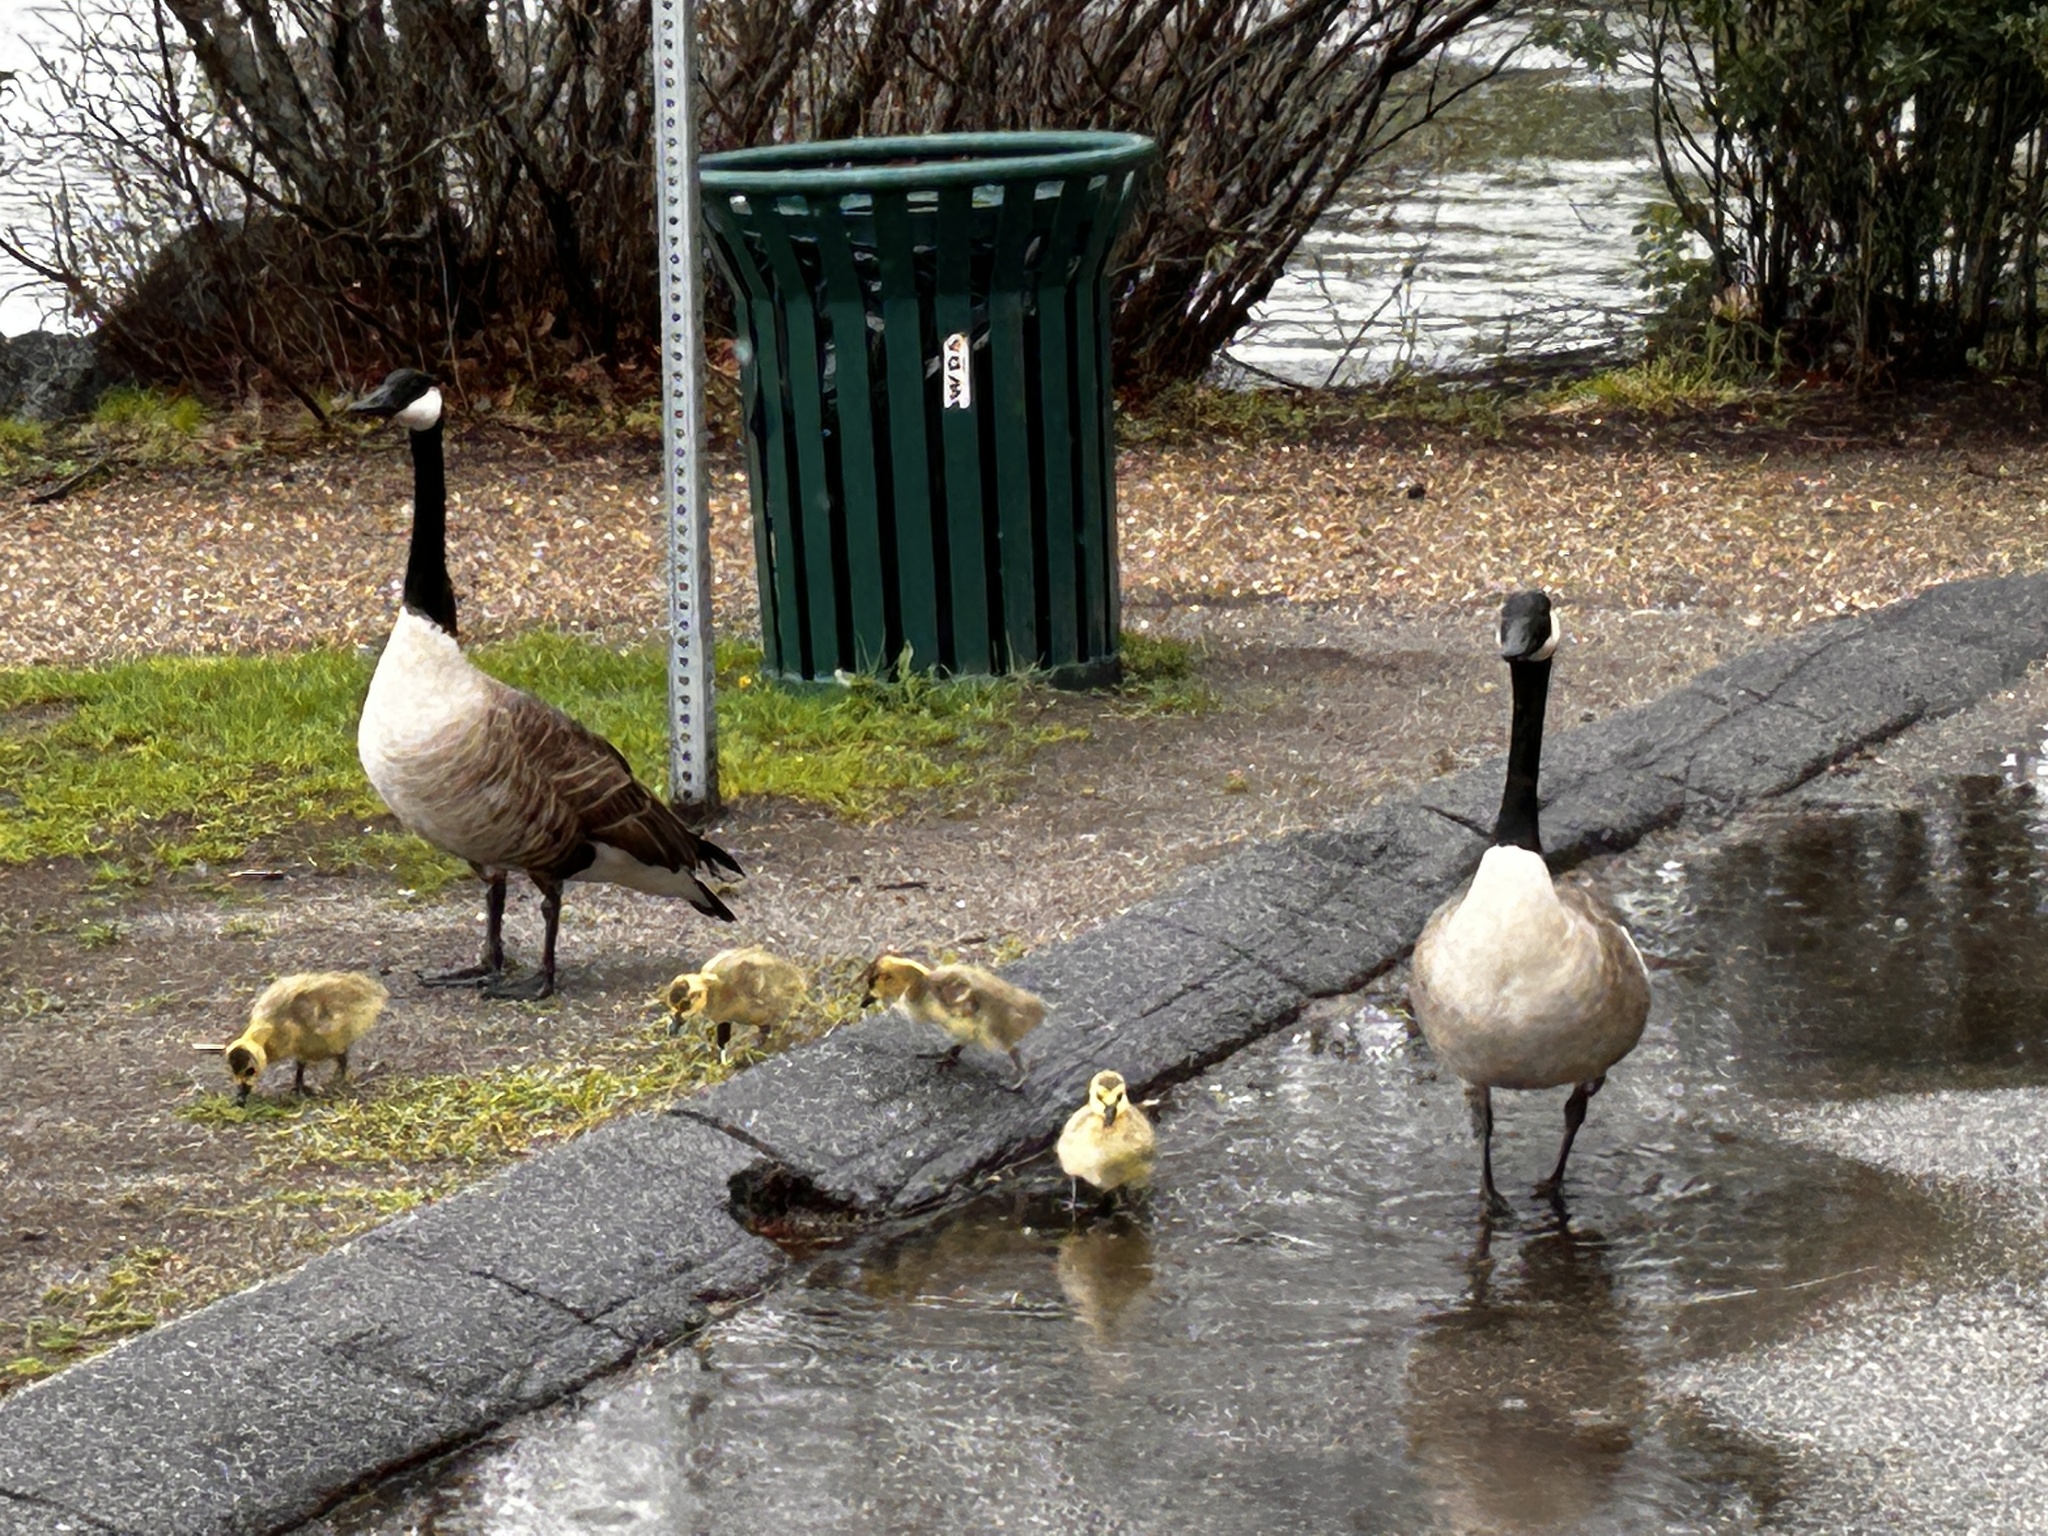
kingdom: Animalia
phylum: Chordata
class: Aves
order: Anseriformes
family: Anatidae
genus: Branta
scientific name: Branta canadensis
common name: Canada goose
